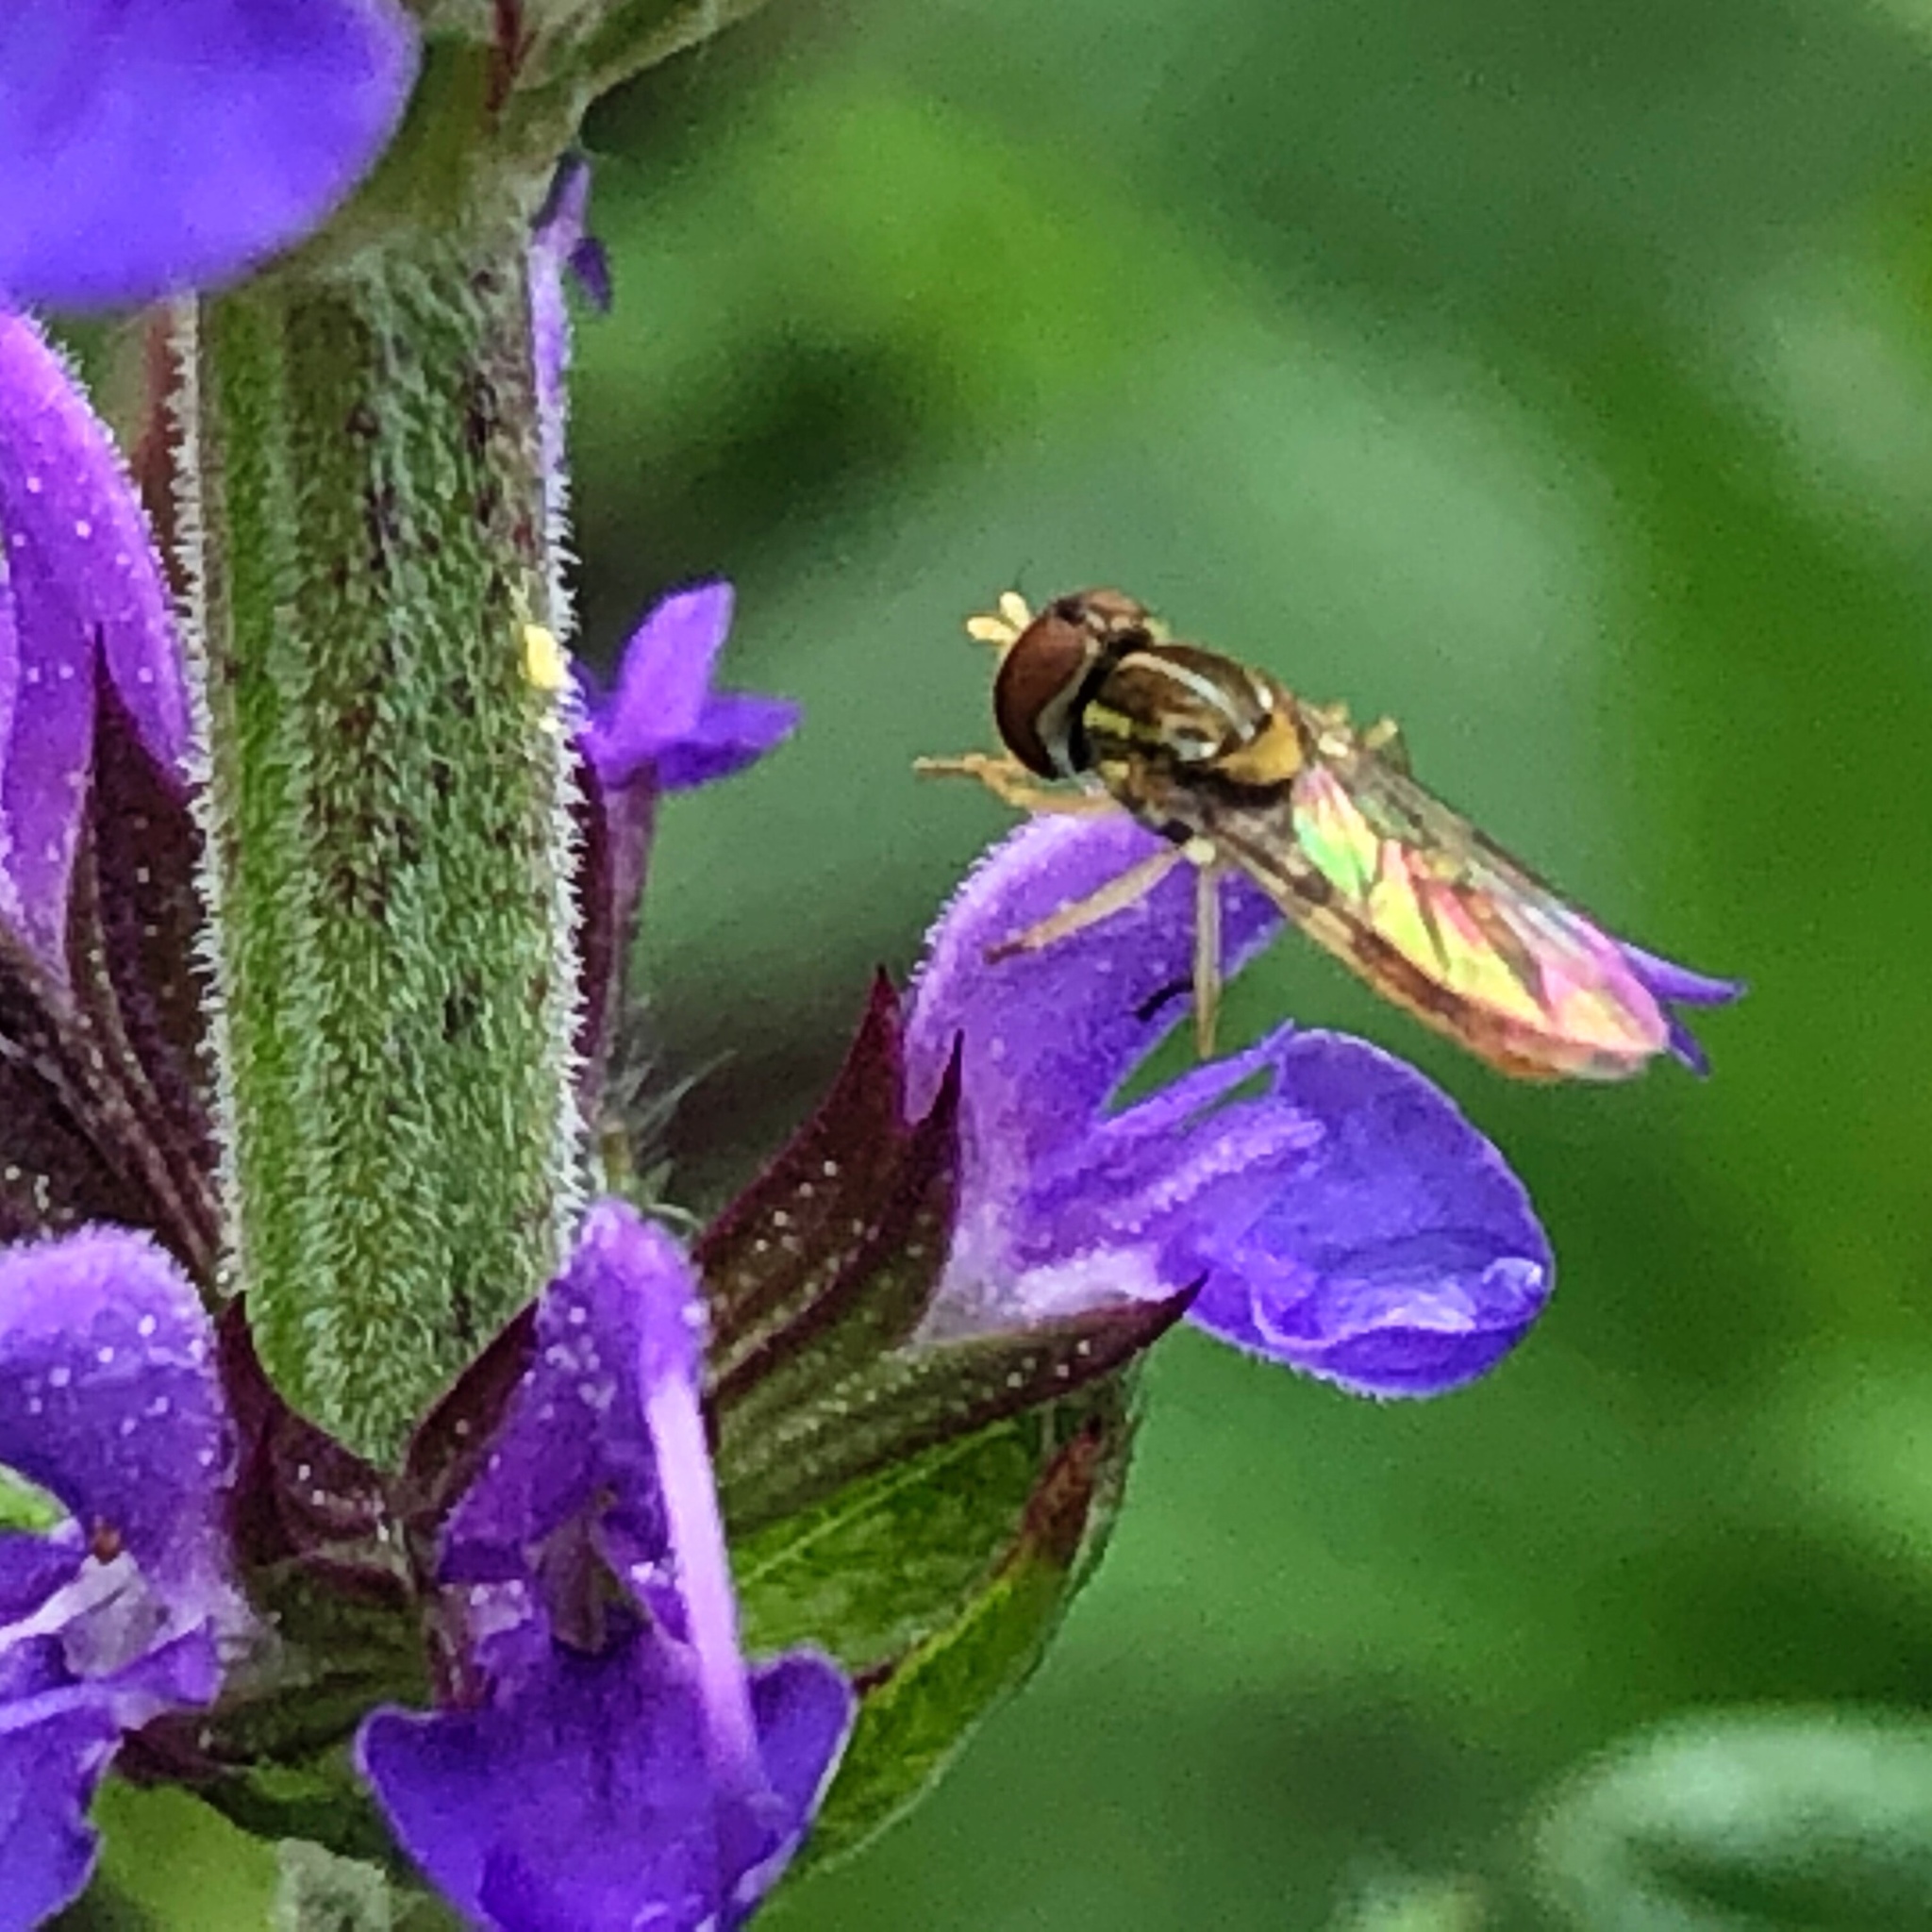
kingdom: Animalia
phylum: Arthropoda
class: Insecta
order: Diptera
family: Syrphidae
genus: Toxomerus
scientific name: Toxomerus marginatus
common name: Syrphid fly
